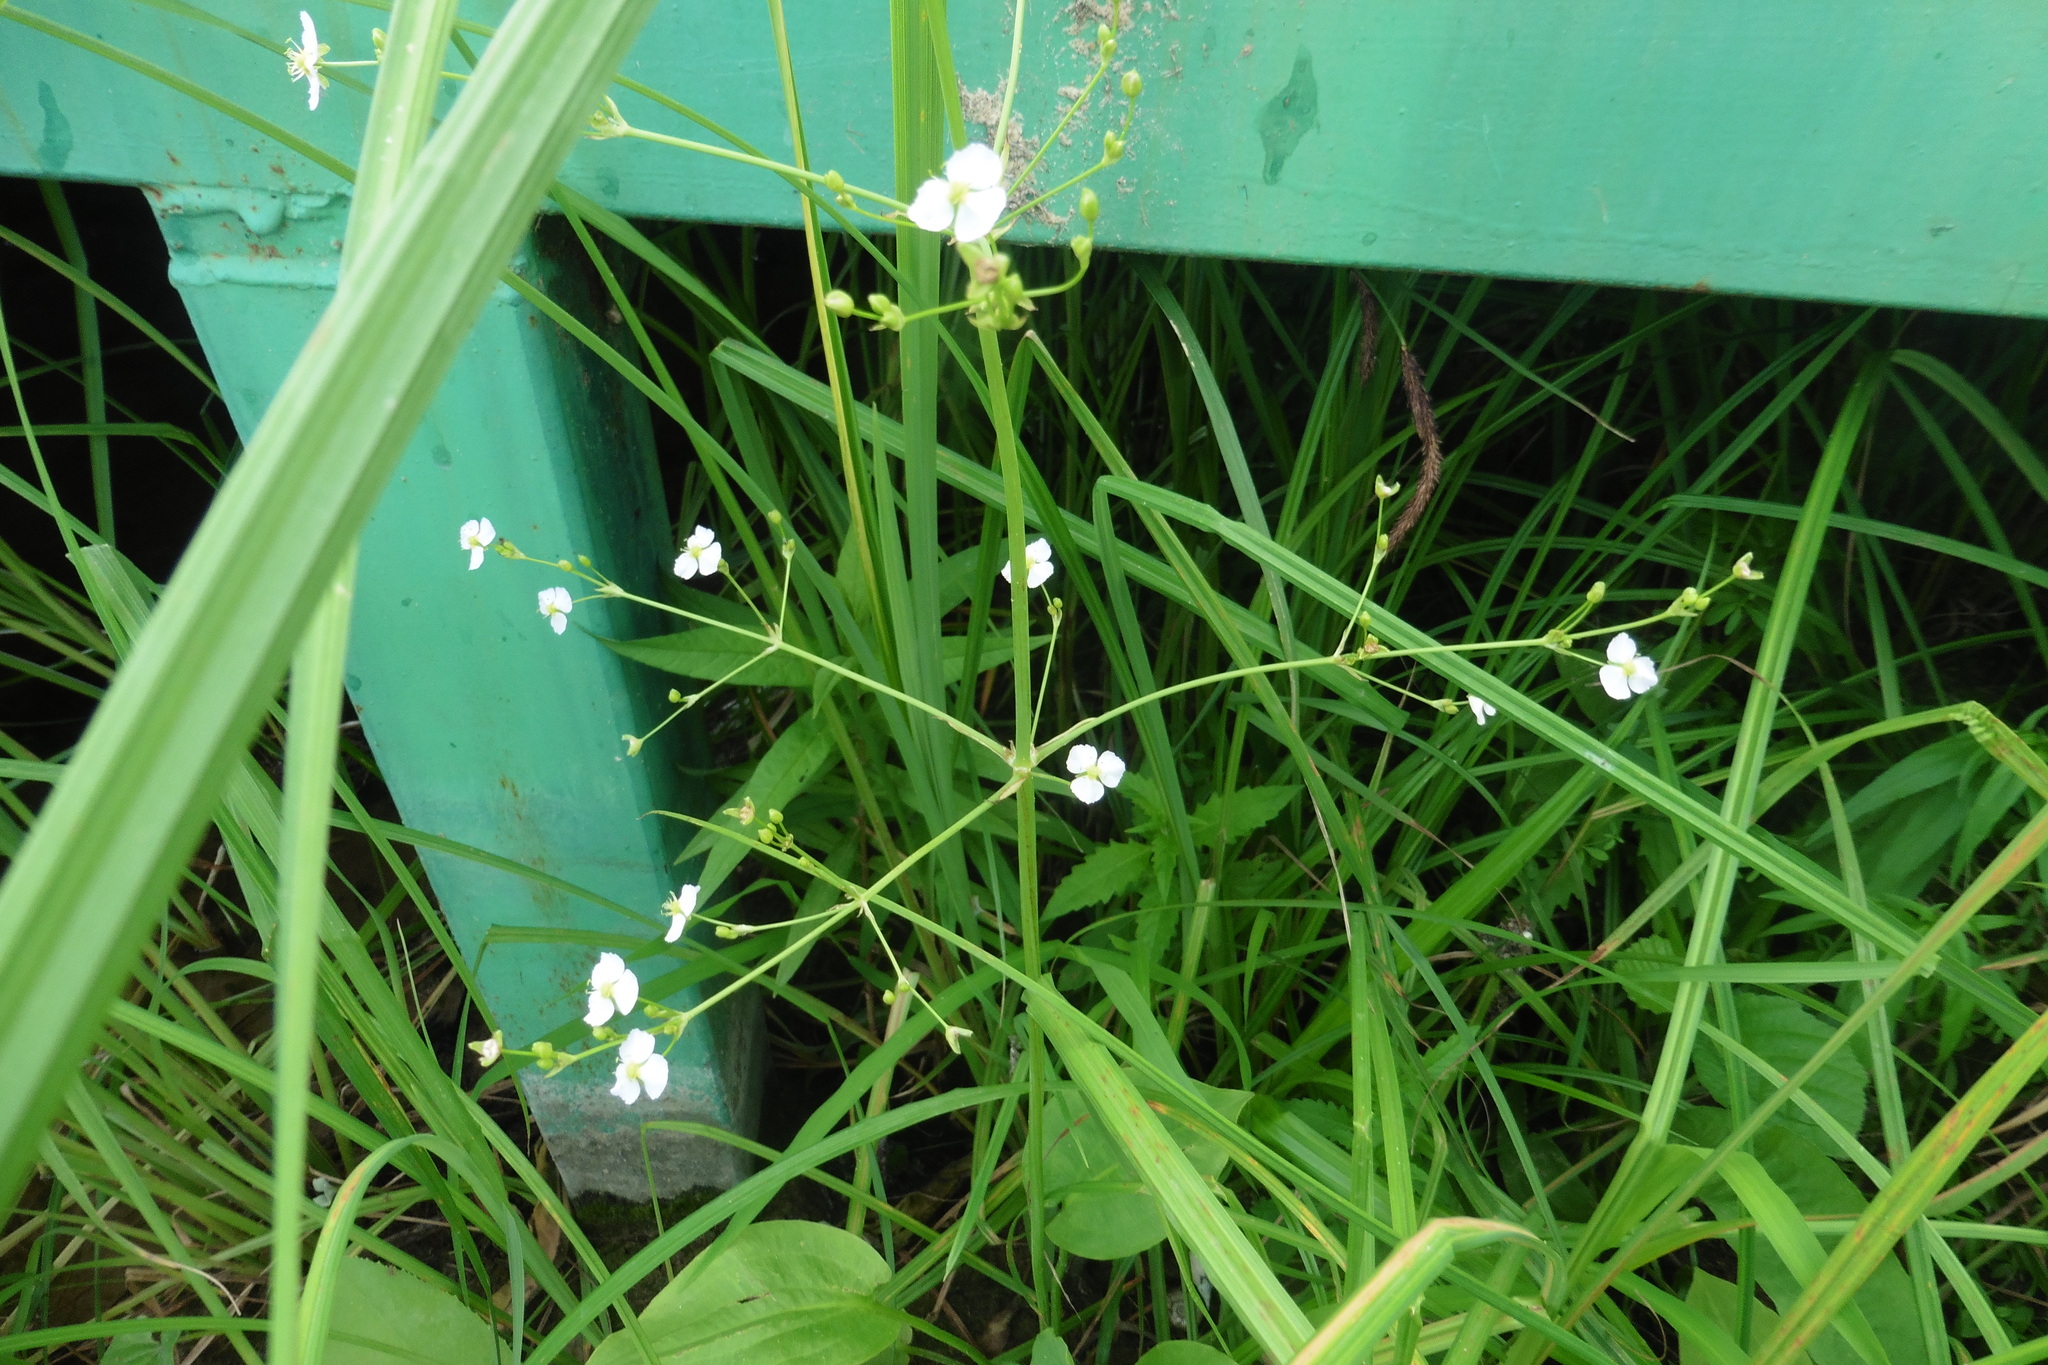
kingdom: Plantae
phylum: Tracheophyta
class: Liliopsida
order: Alismatales
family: Alismataceae
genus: Alisma
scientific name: Alisma plantago-aquatica
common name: Water-plantain
